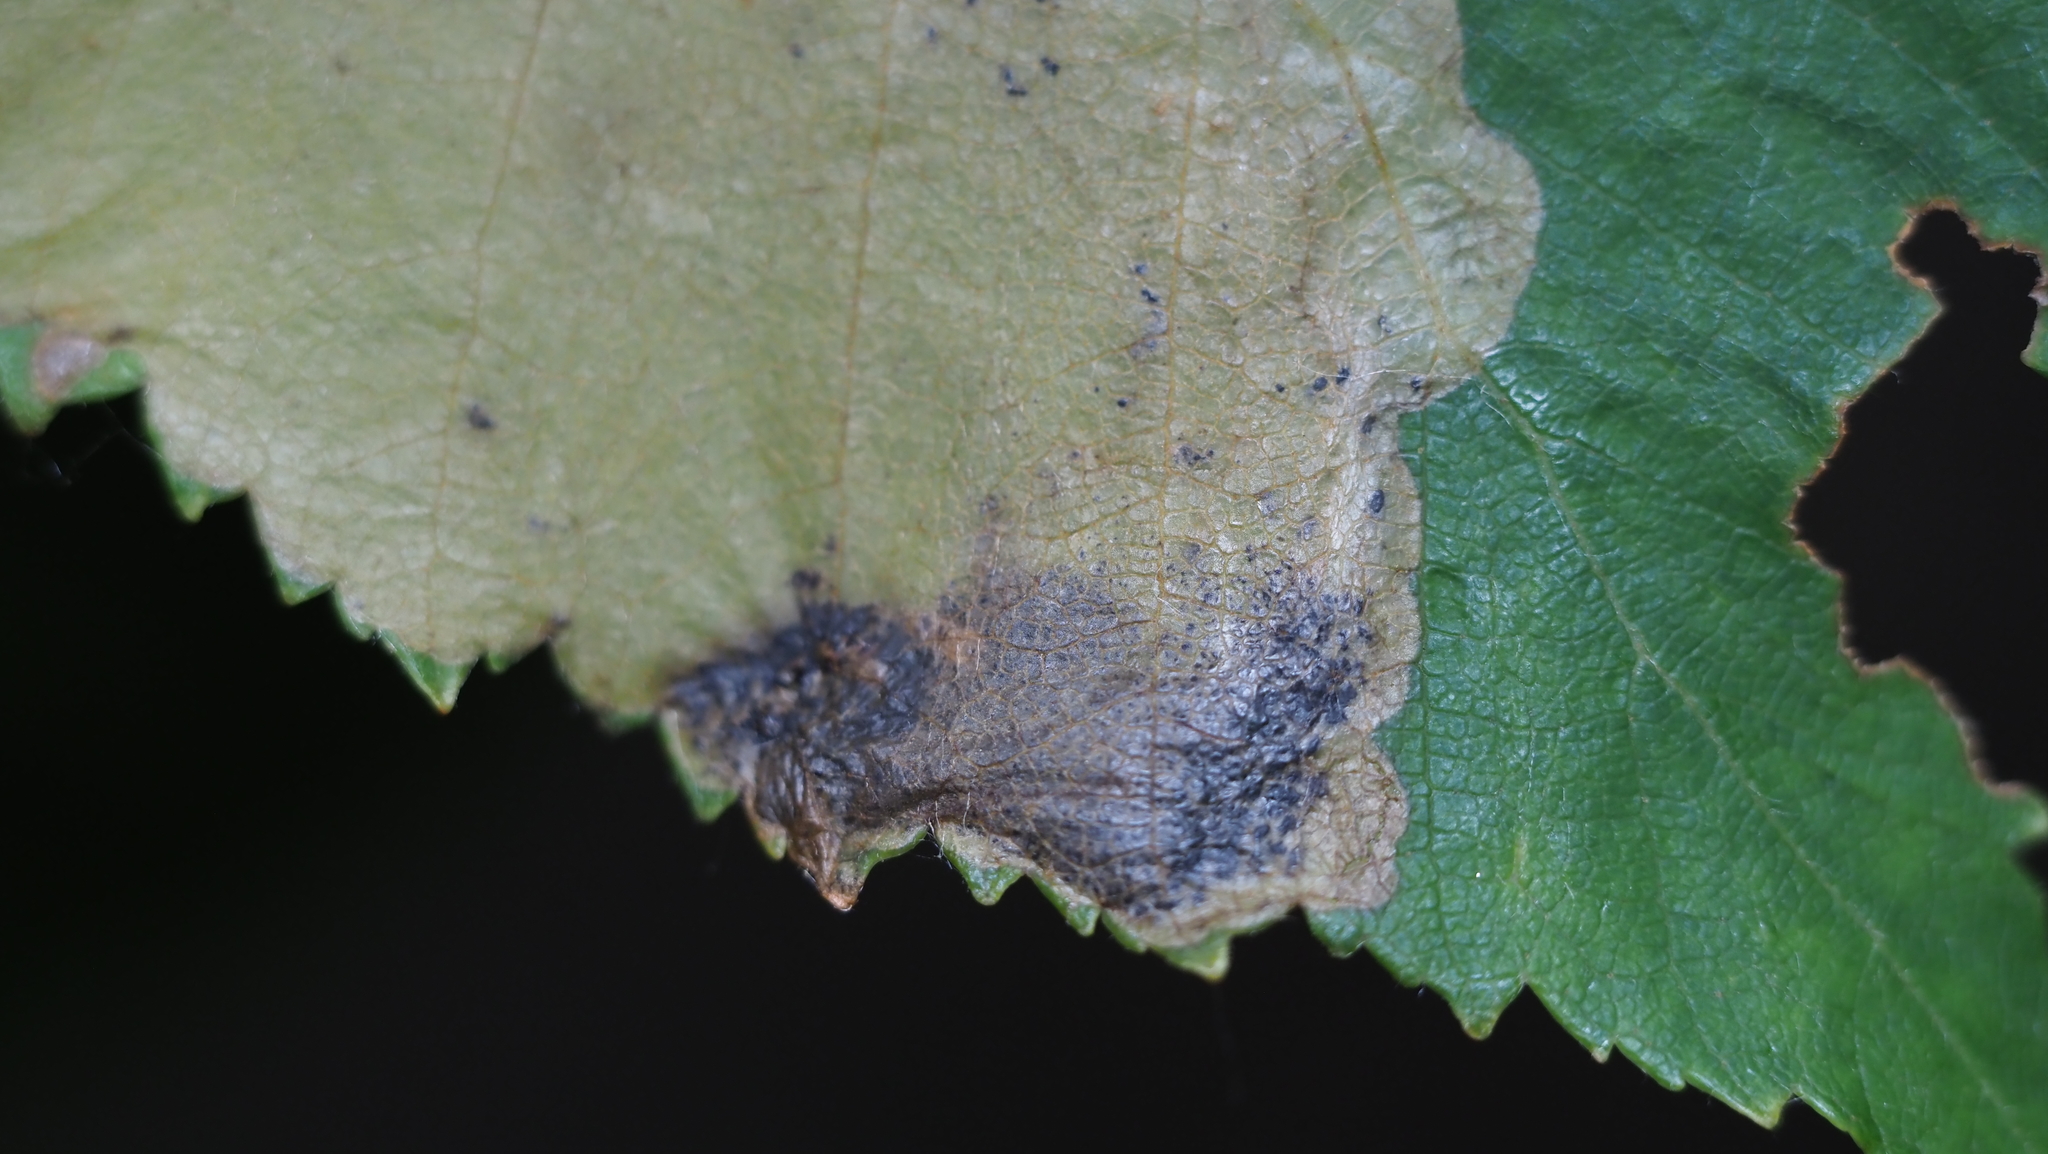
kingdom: Animalia
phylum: Arthropoda
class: Insecta
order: Hymenoptera
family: Tenthredinidae
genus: Fenusella
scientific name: Fenusella nana
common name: Early birch leaf edgeminer
